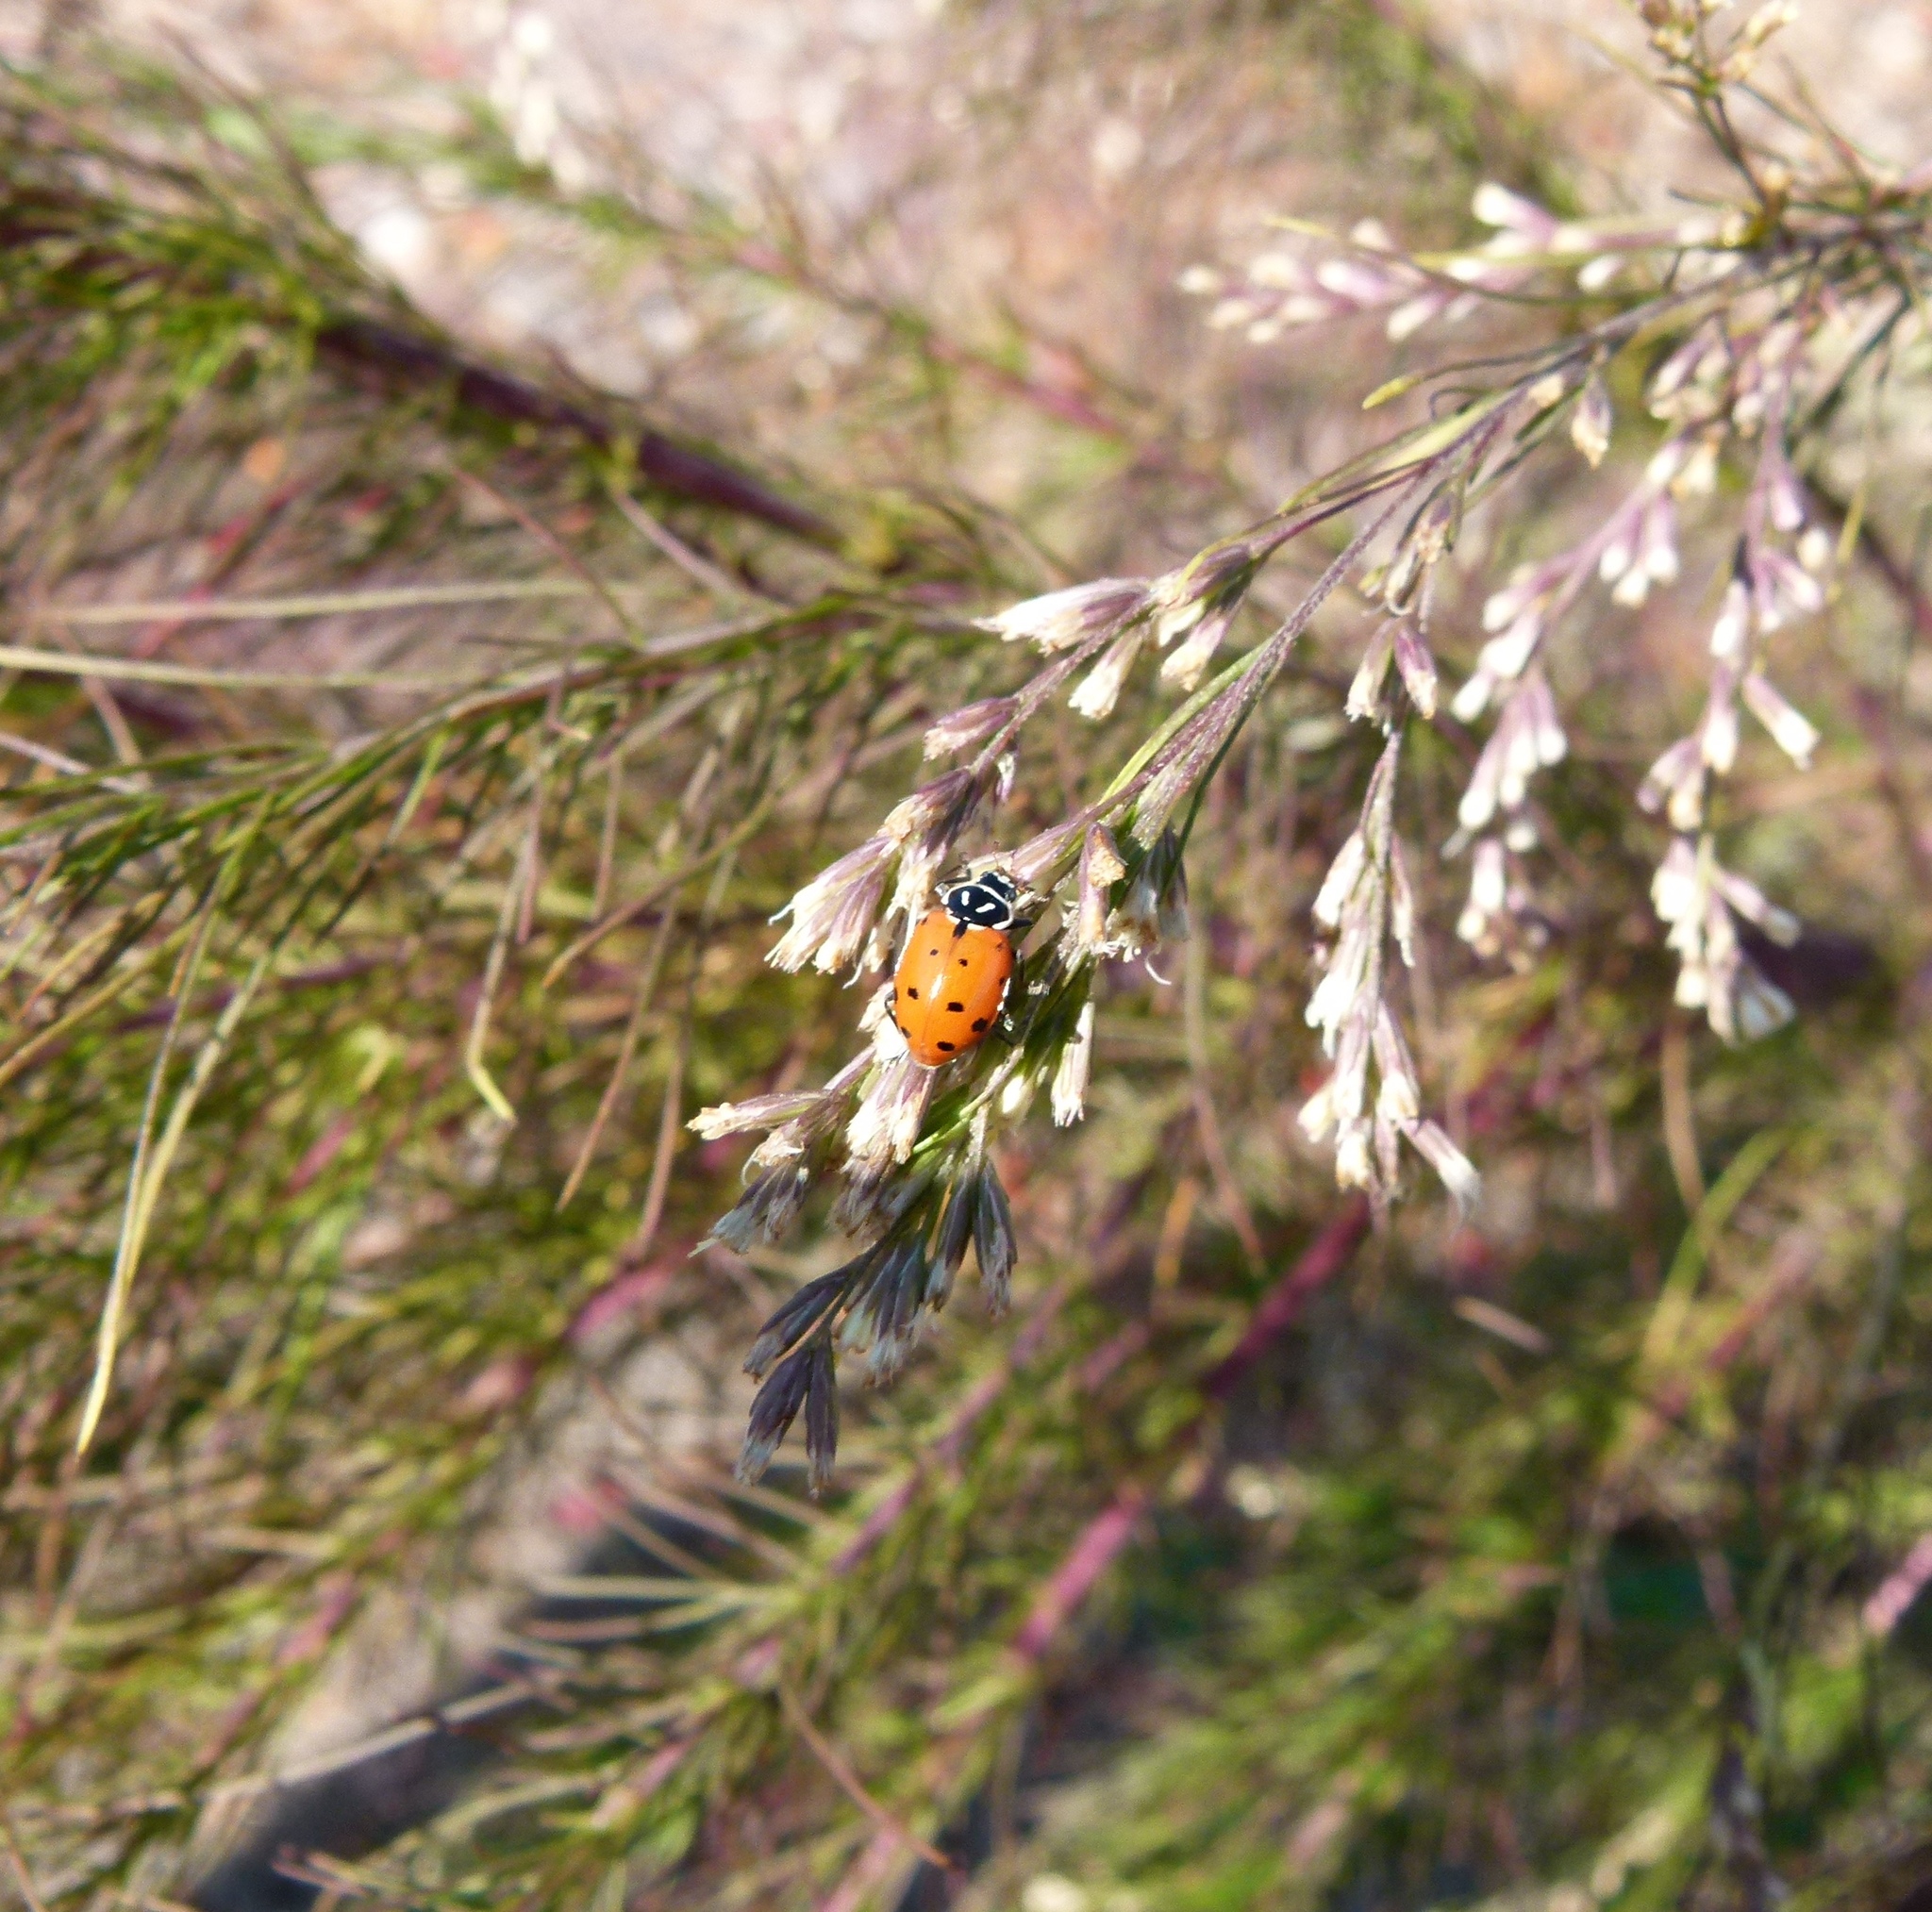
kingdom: Animalia
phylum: Arthropoda
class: Insecta
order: Coleoptera
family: Coccinellidae
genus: Hippodamia
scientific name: Hippodamia convergens
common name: Convergent lady beetle
